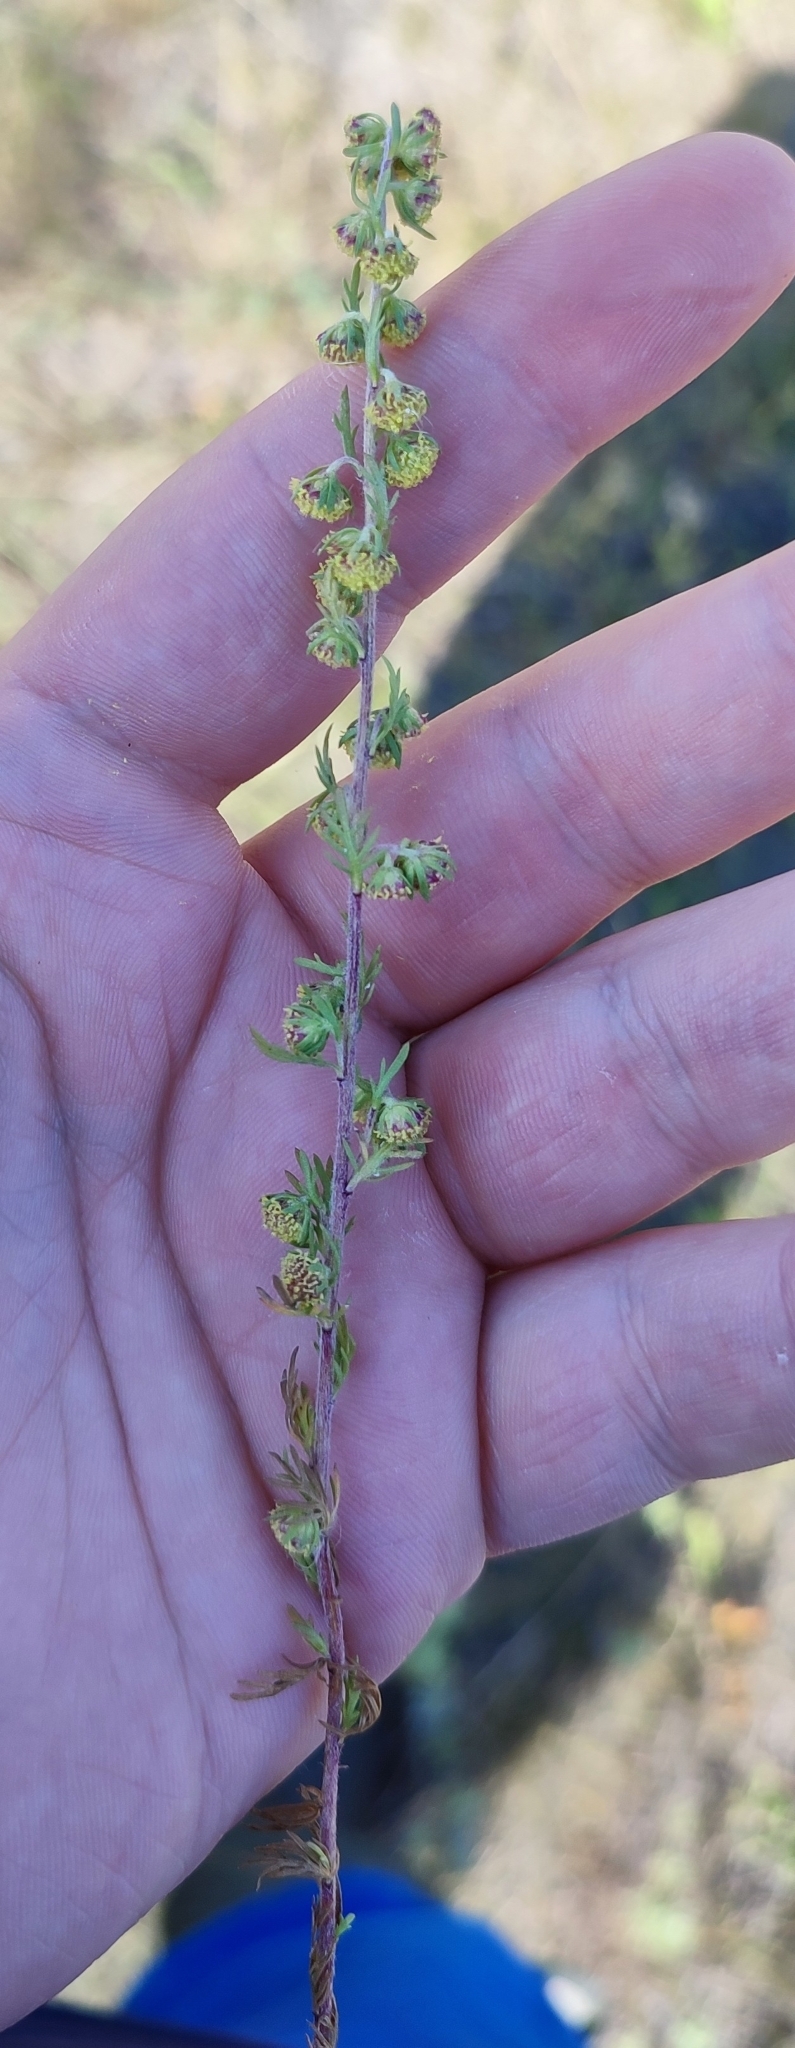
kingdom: Plantae
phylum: Tracheophyta
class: Magnoliopsida
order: Asterales
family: Asteraceae
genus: Artemisia
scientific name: Artemisia macrantha
